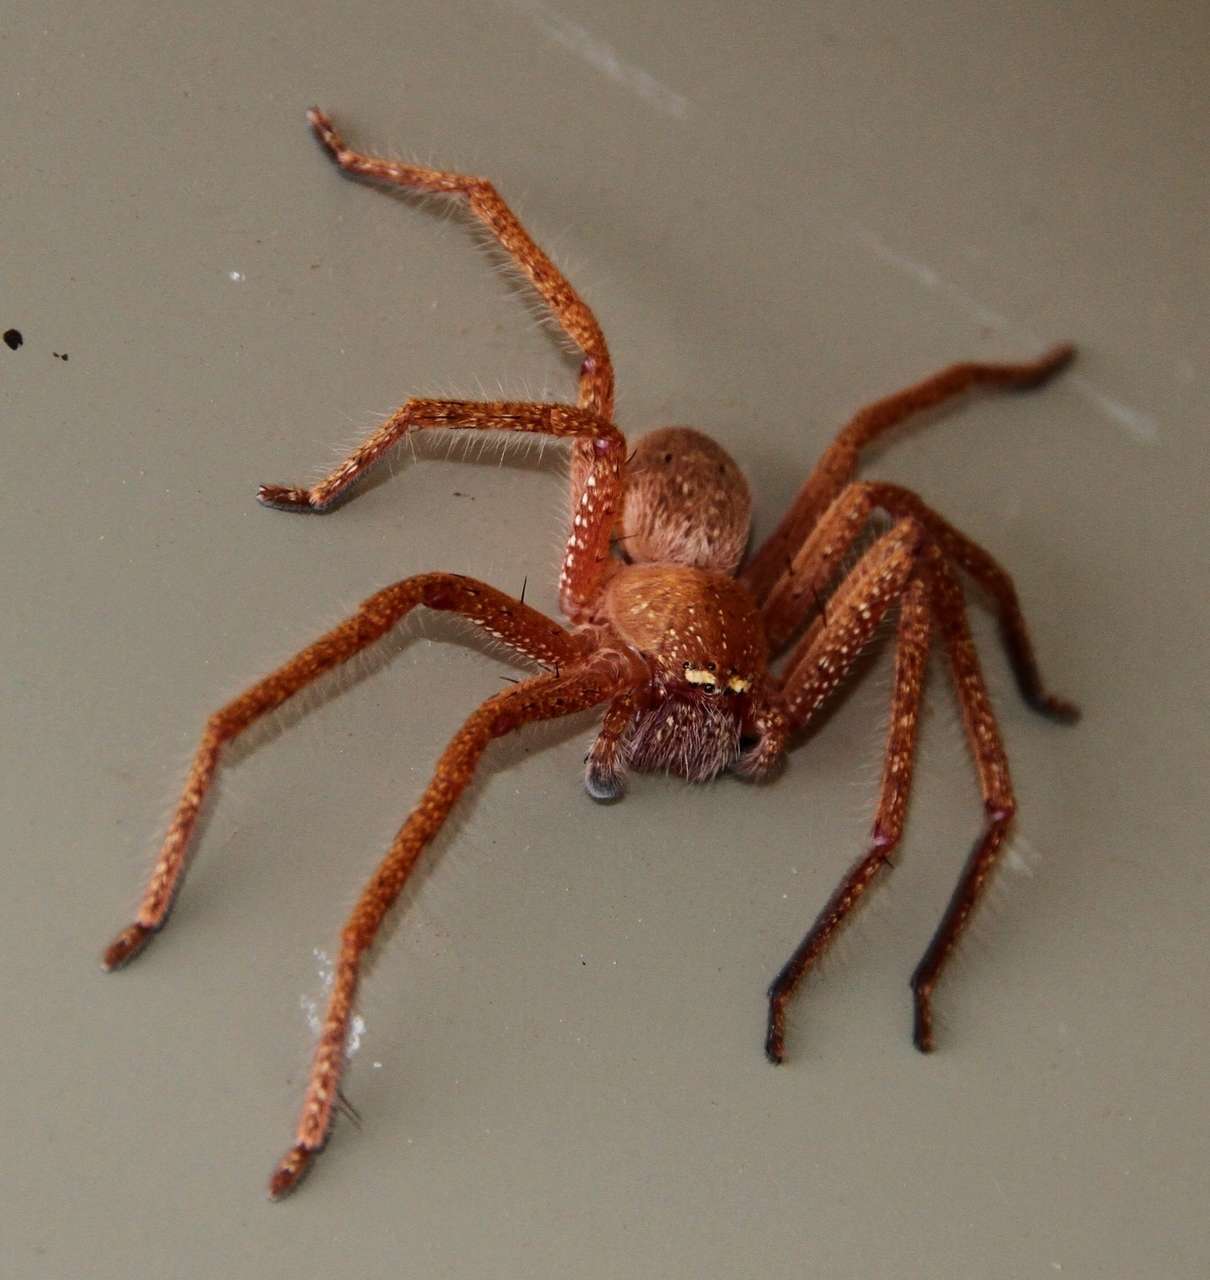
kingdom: Animalia
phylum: Arthropoda
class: Arachnida
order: Araneae
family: Sparassidae
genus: Neosparassus
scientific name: Neosparassus diana
